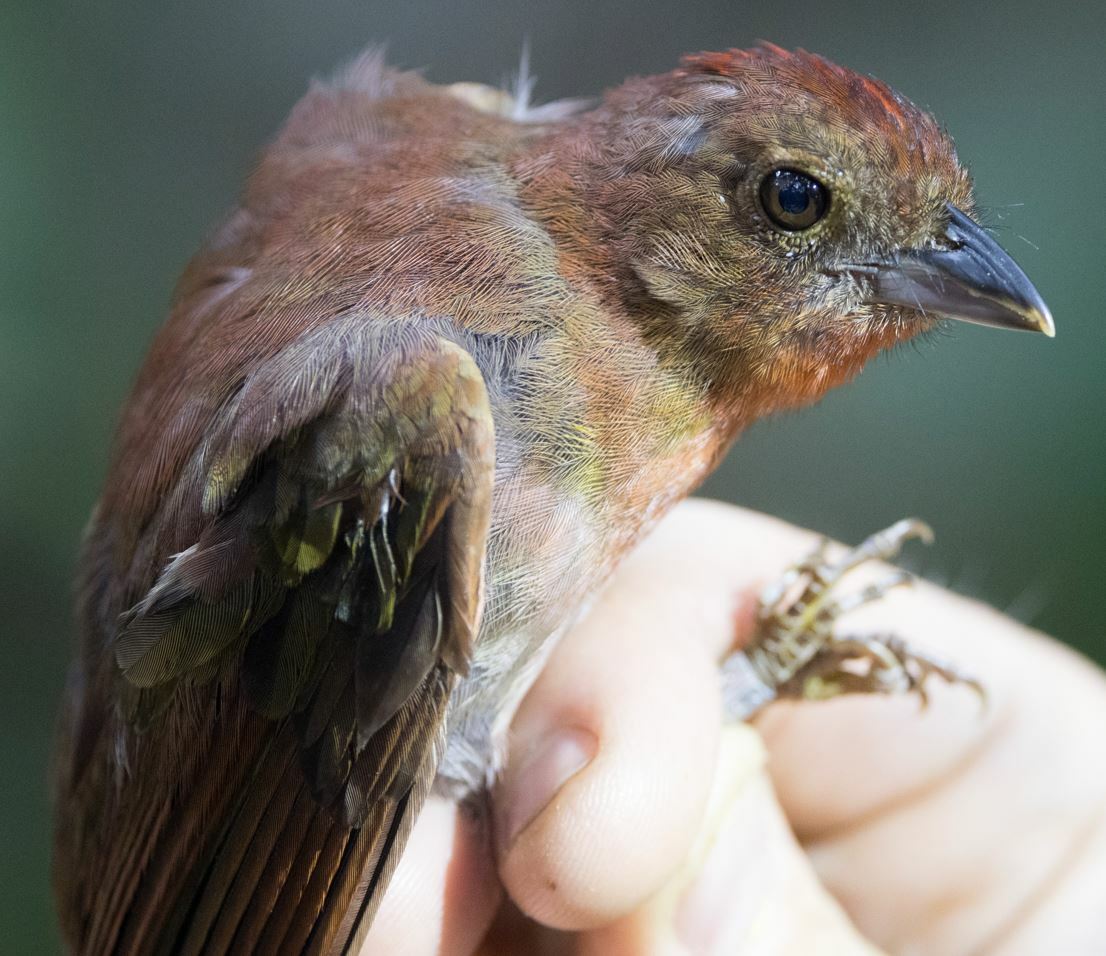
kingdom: Animalia
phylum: Chordata
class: Aves
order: Passeriformes
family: Cardinalidae
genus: Habia
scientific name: Habia rubica
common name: Red-crowned ant-tanager
